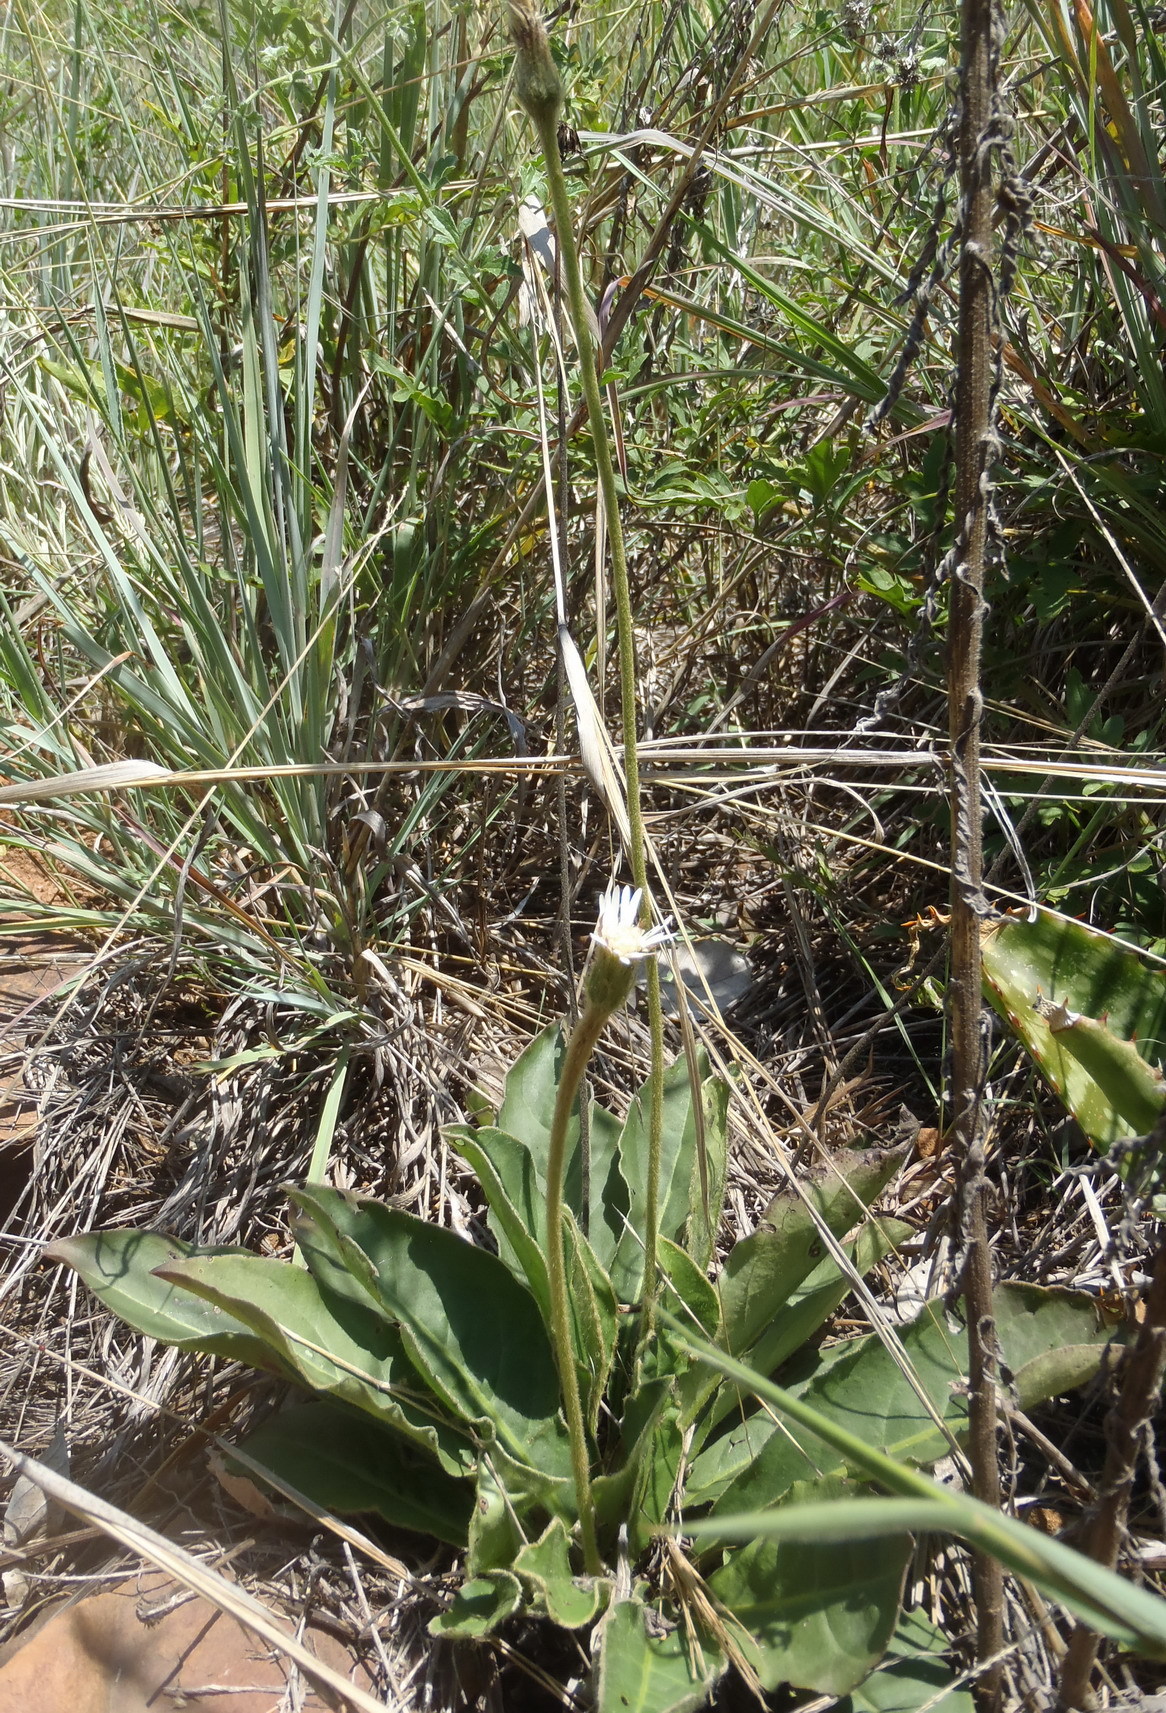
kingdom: Plantae
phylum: Tracheophyta
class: Magnoliopsida
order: Asterales
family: Asteraceae
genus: Piloselloides
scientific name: Piloselloides hirsuta
